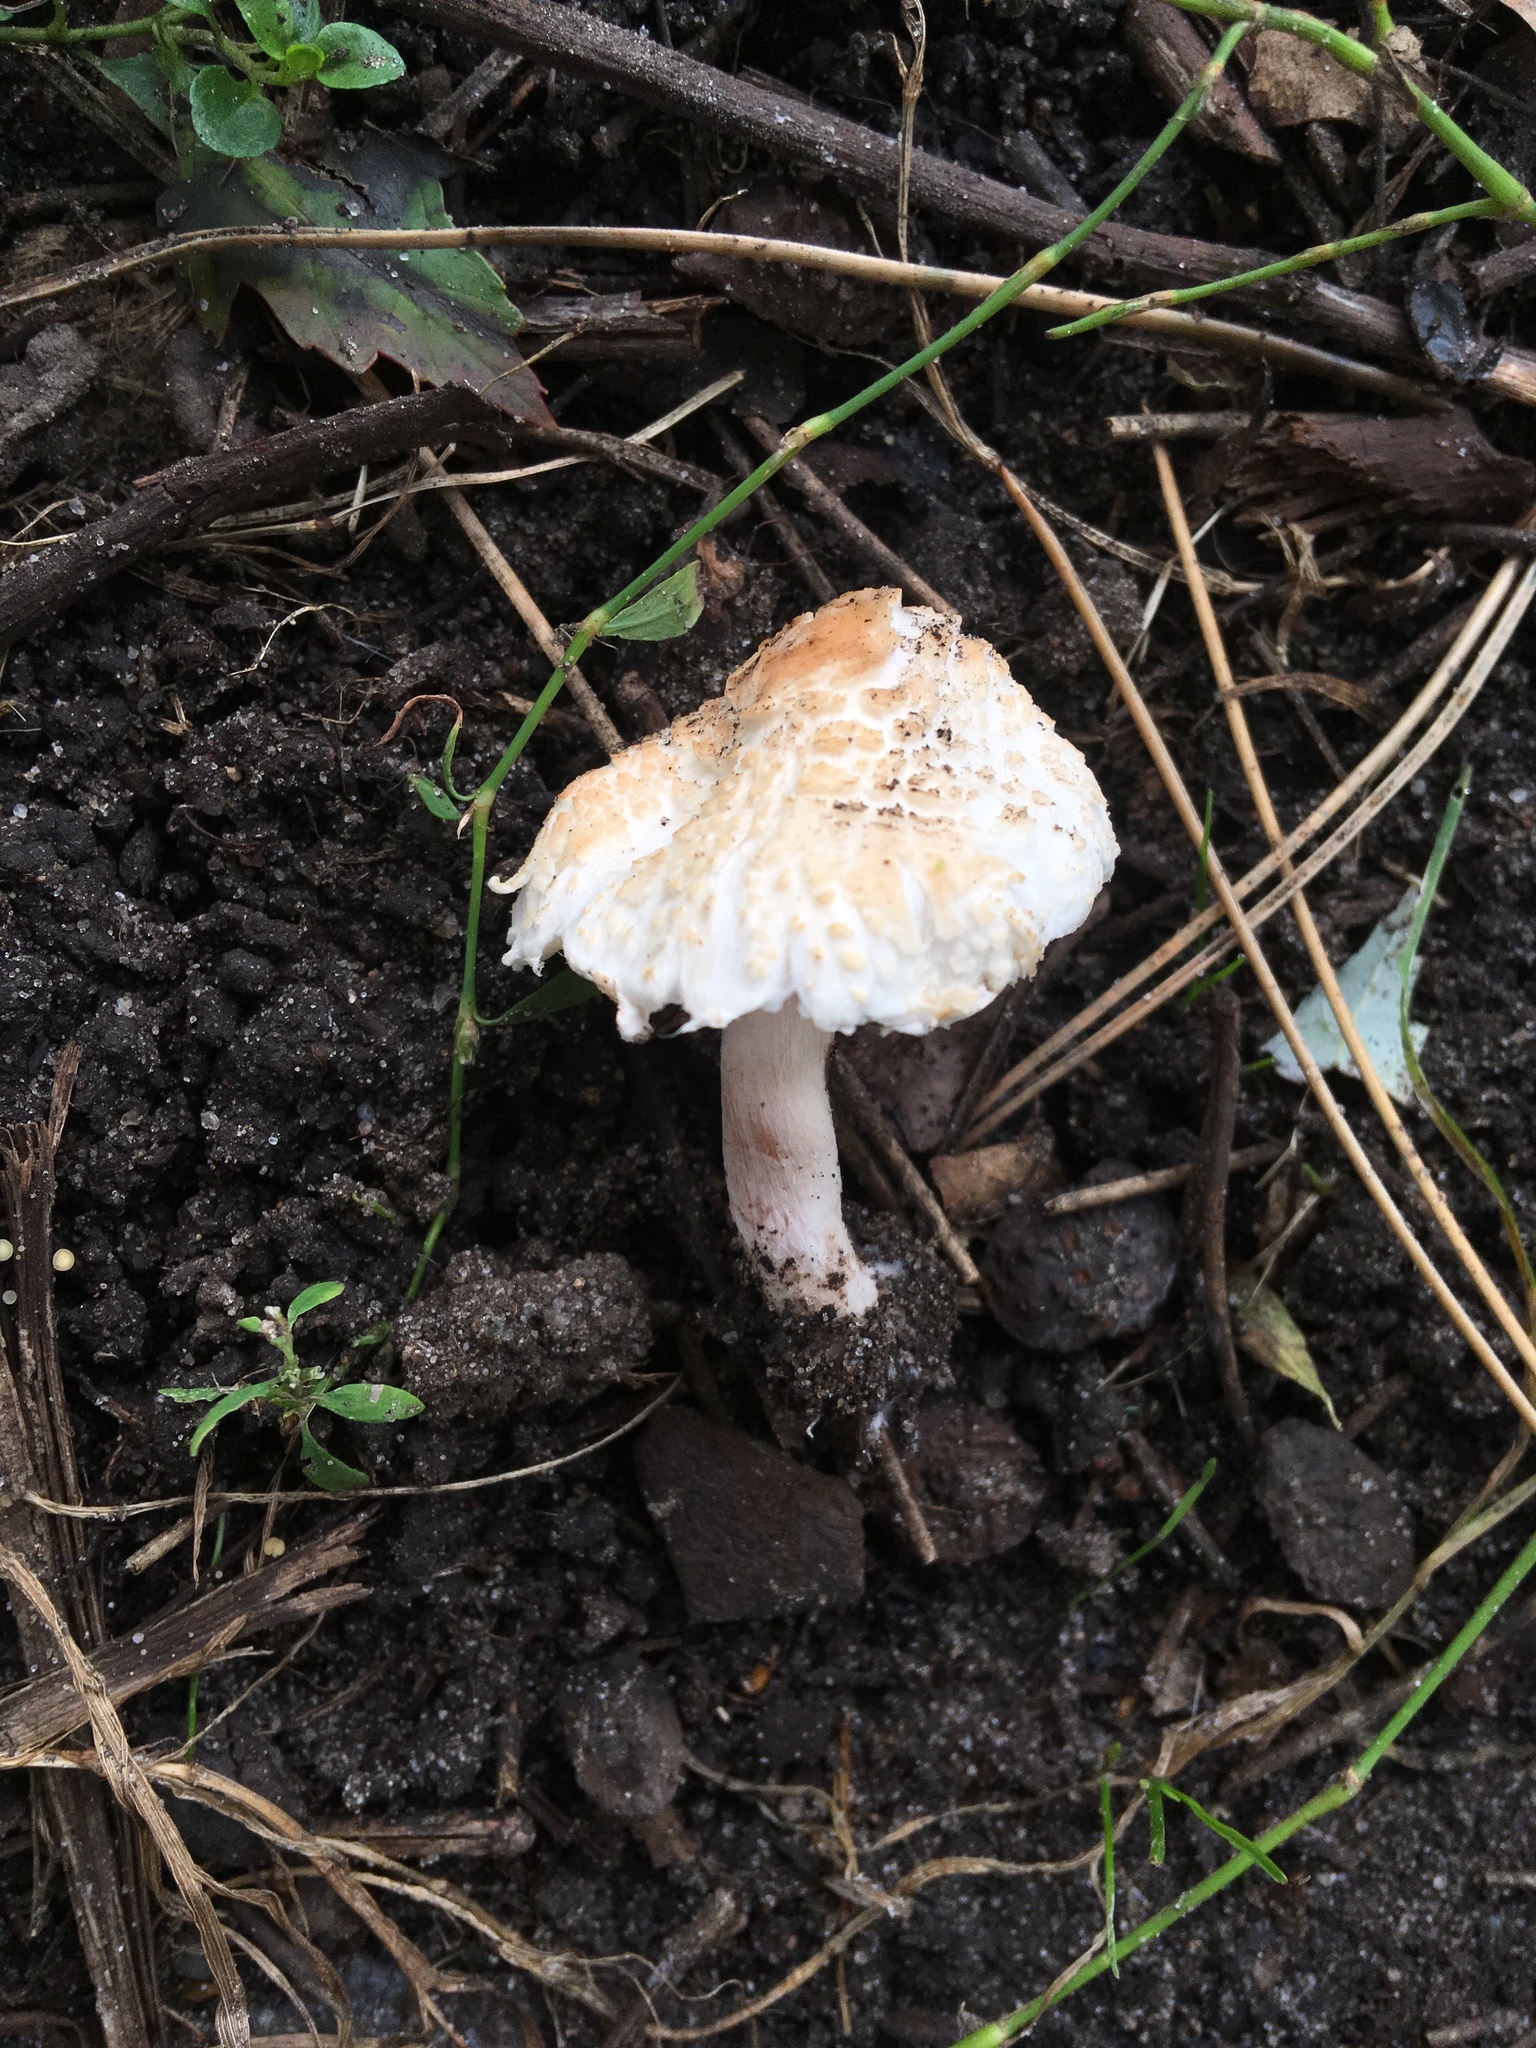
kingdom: Fungi
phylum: Basidiomycota
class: Agaricomycetes
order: Agaricales
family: Agaricaceae
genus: Lepiota
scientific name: Lepiota cristata
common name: Stinking dapperling
